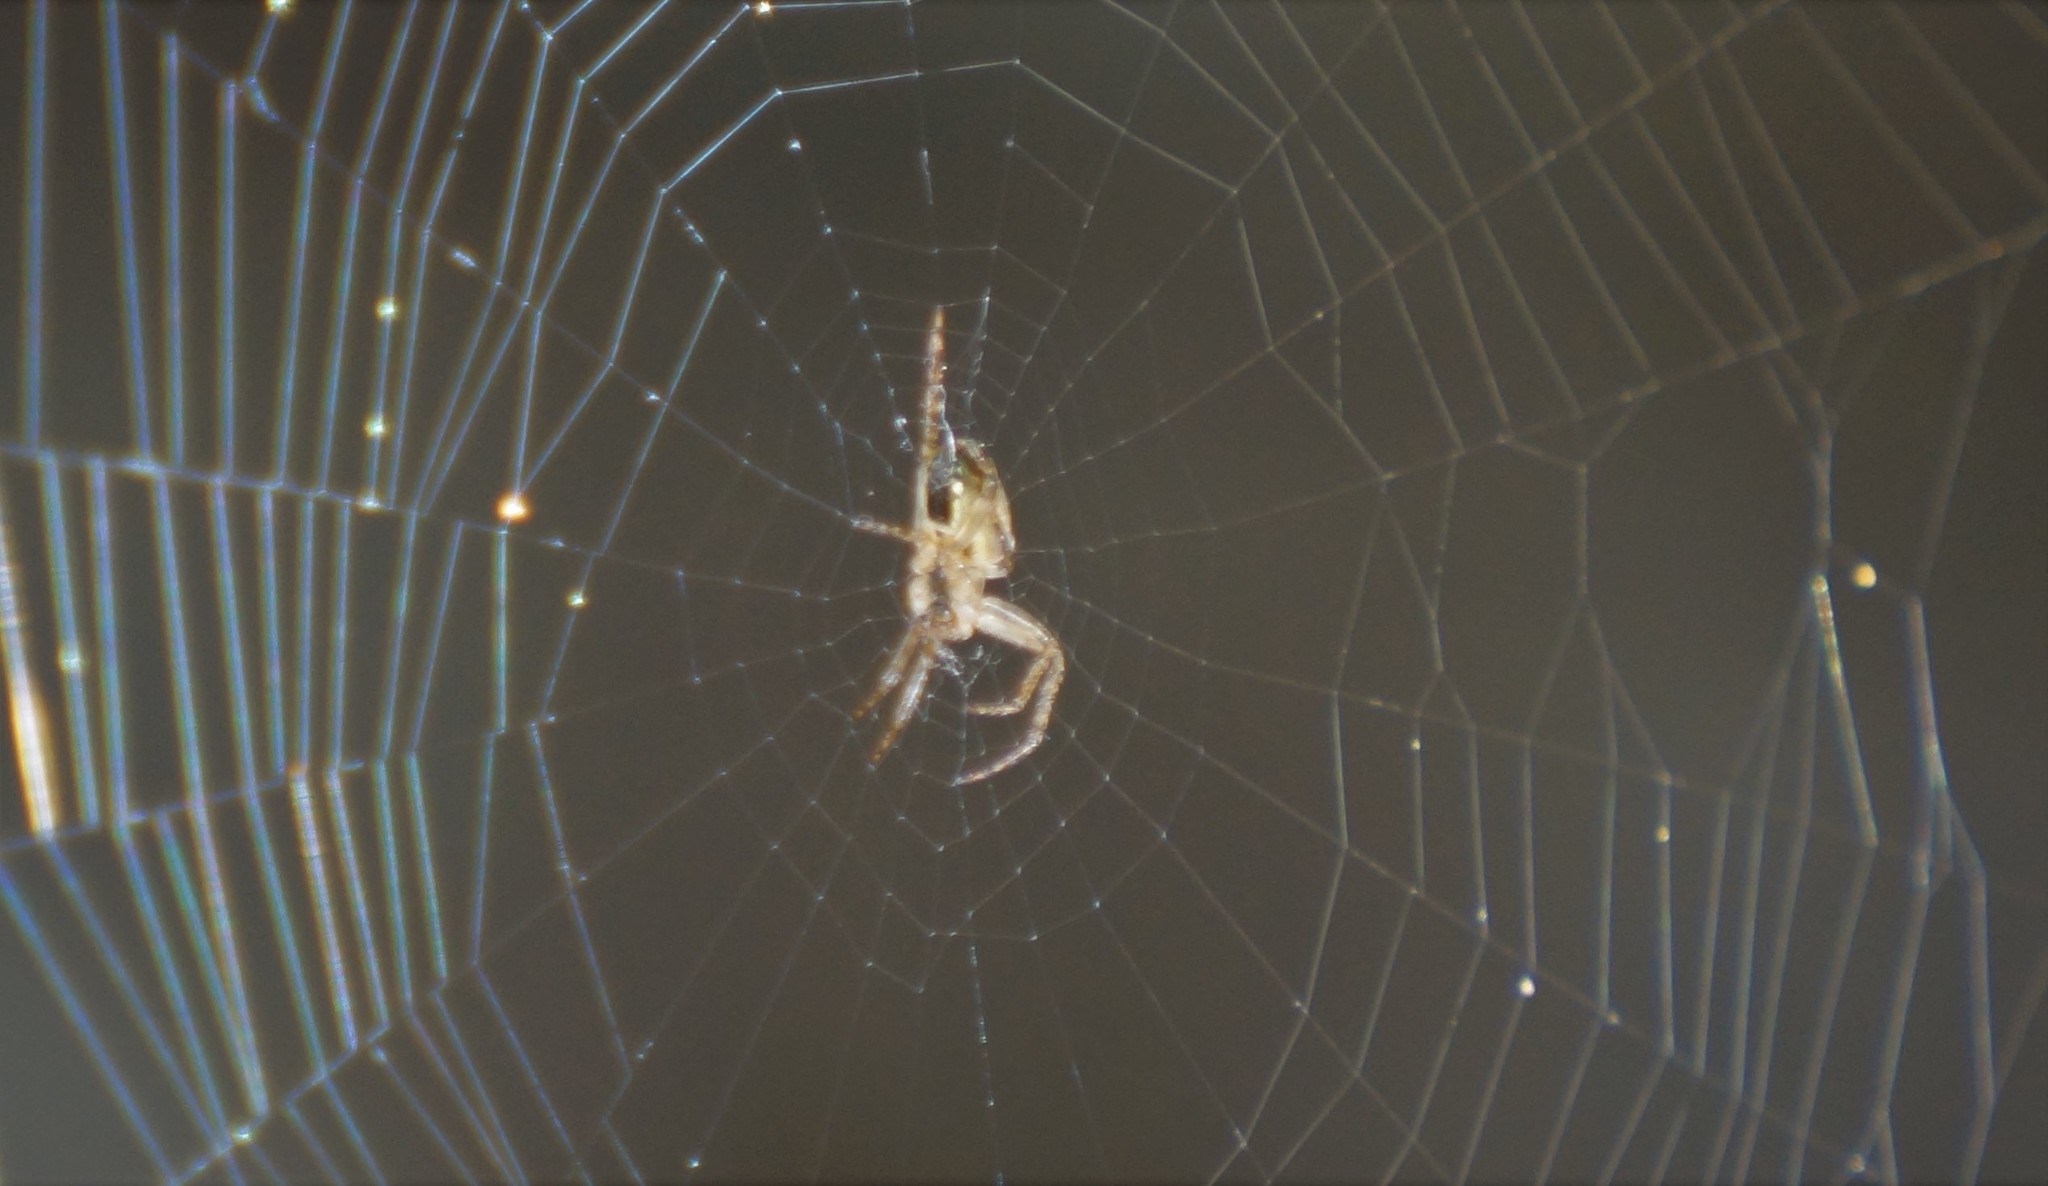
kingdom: Animalia
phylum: Arthropoda
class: Arachnida
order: Araneae
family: Araneidae
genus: Plebs
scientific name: Plebs eburnus
